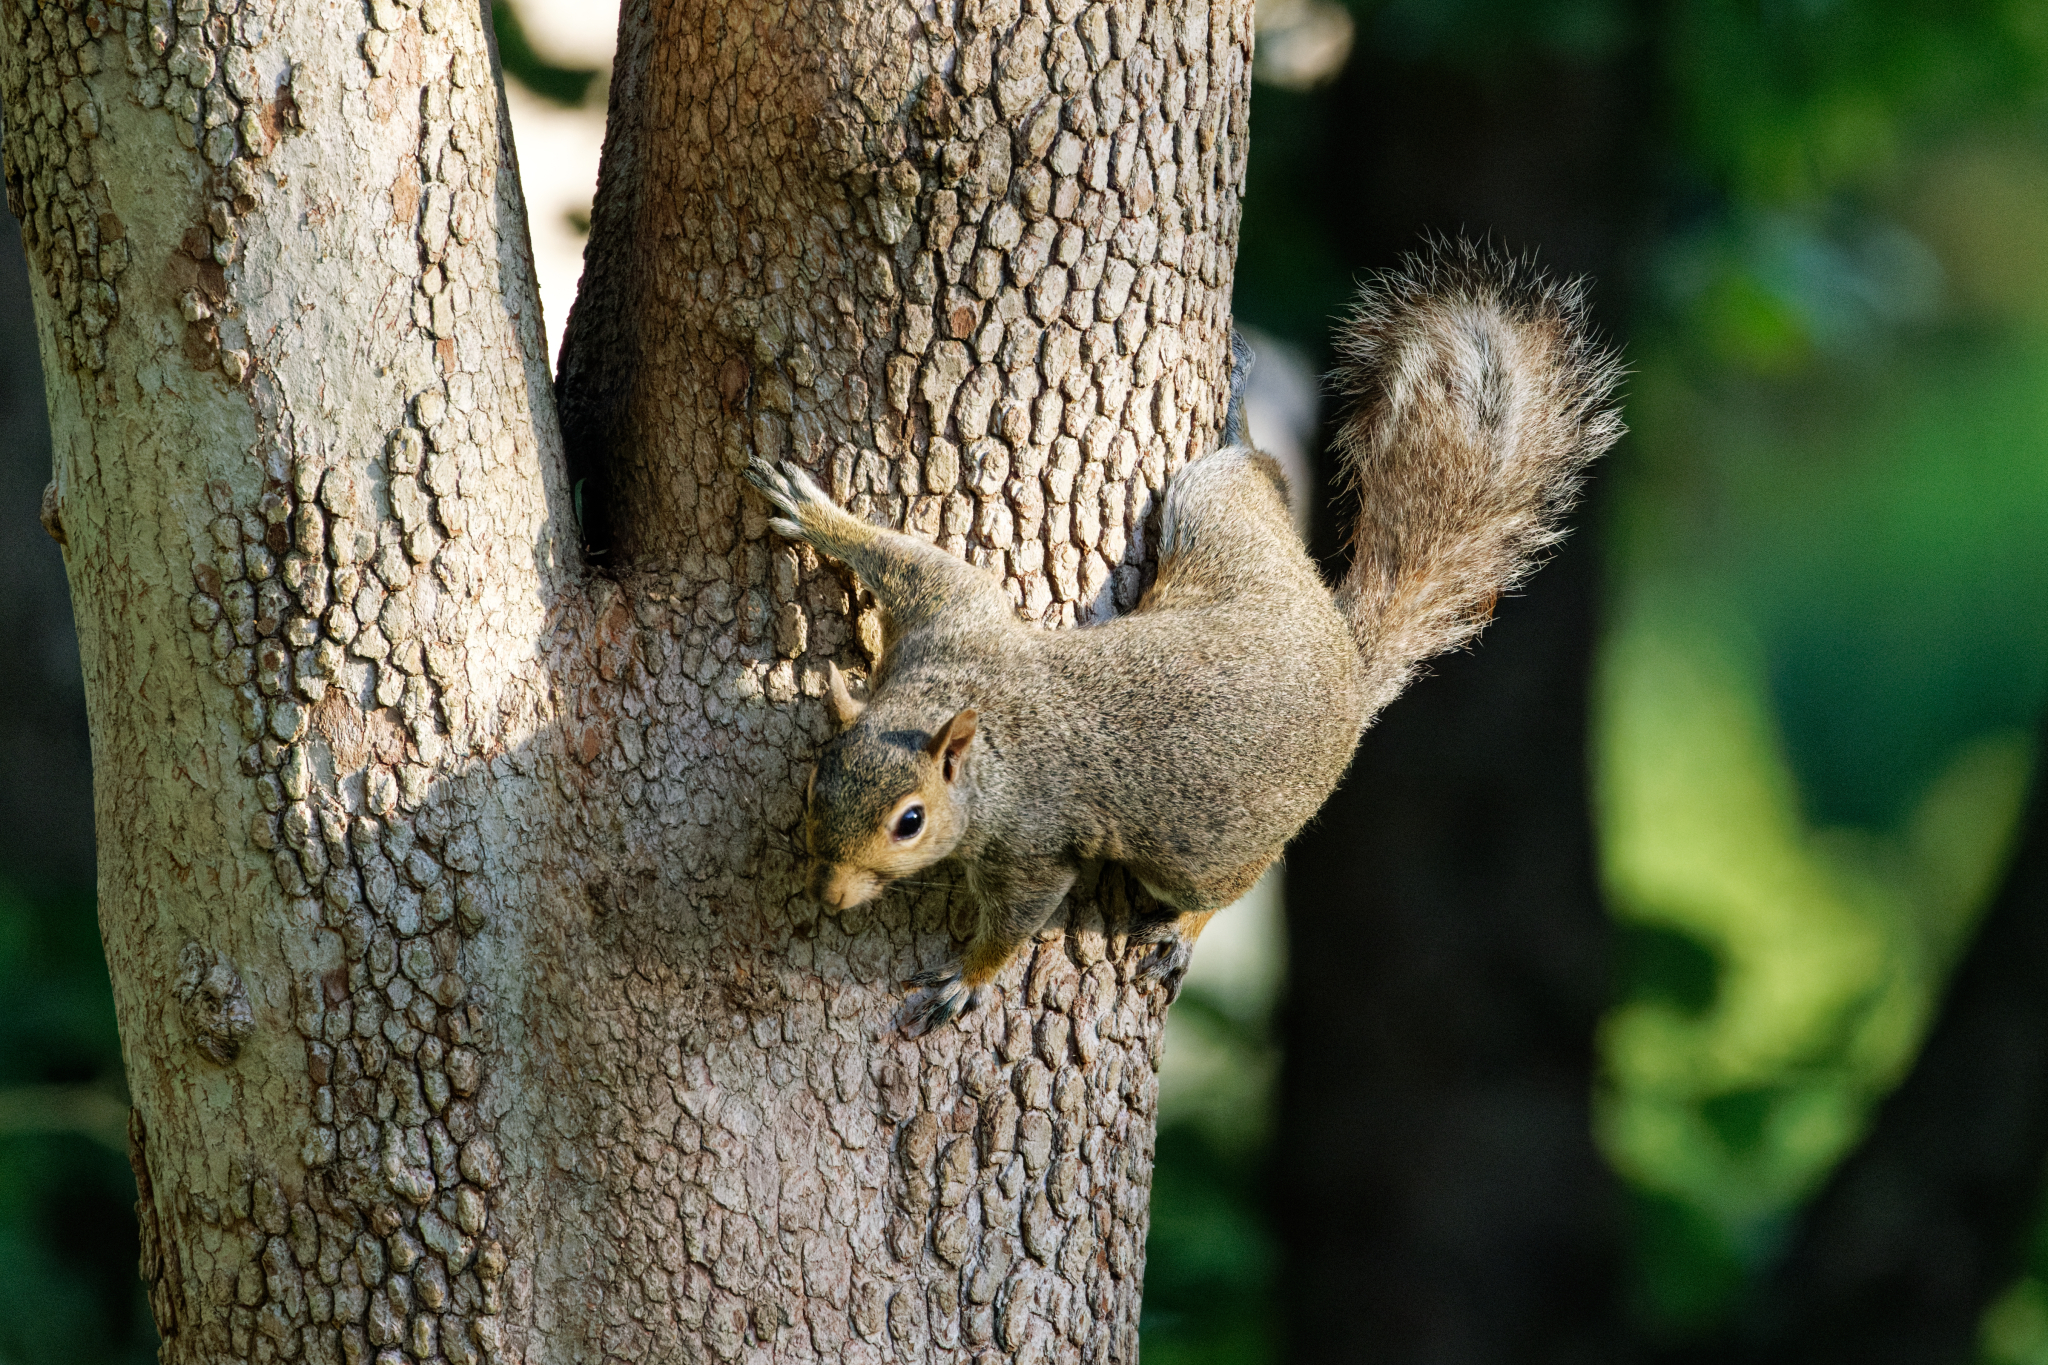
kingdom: Animalia
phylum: Chordata
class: Mammalia
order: Rodentia
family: Sciuridae
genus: Sciurus
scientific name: Sciurus carolinensis
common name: Eastern gray squirrel
